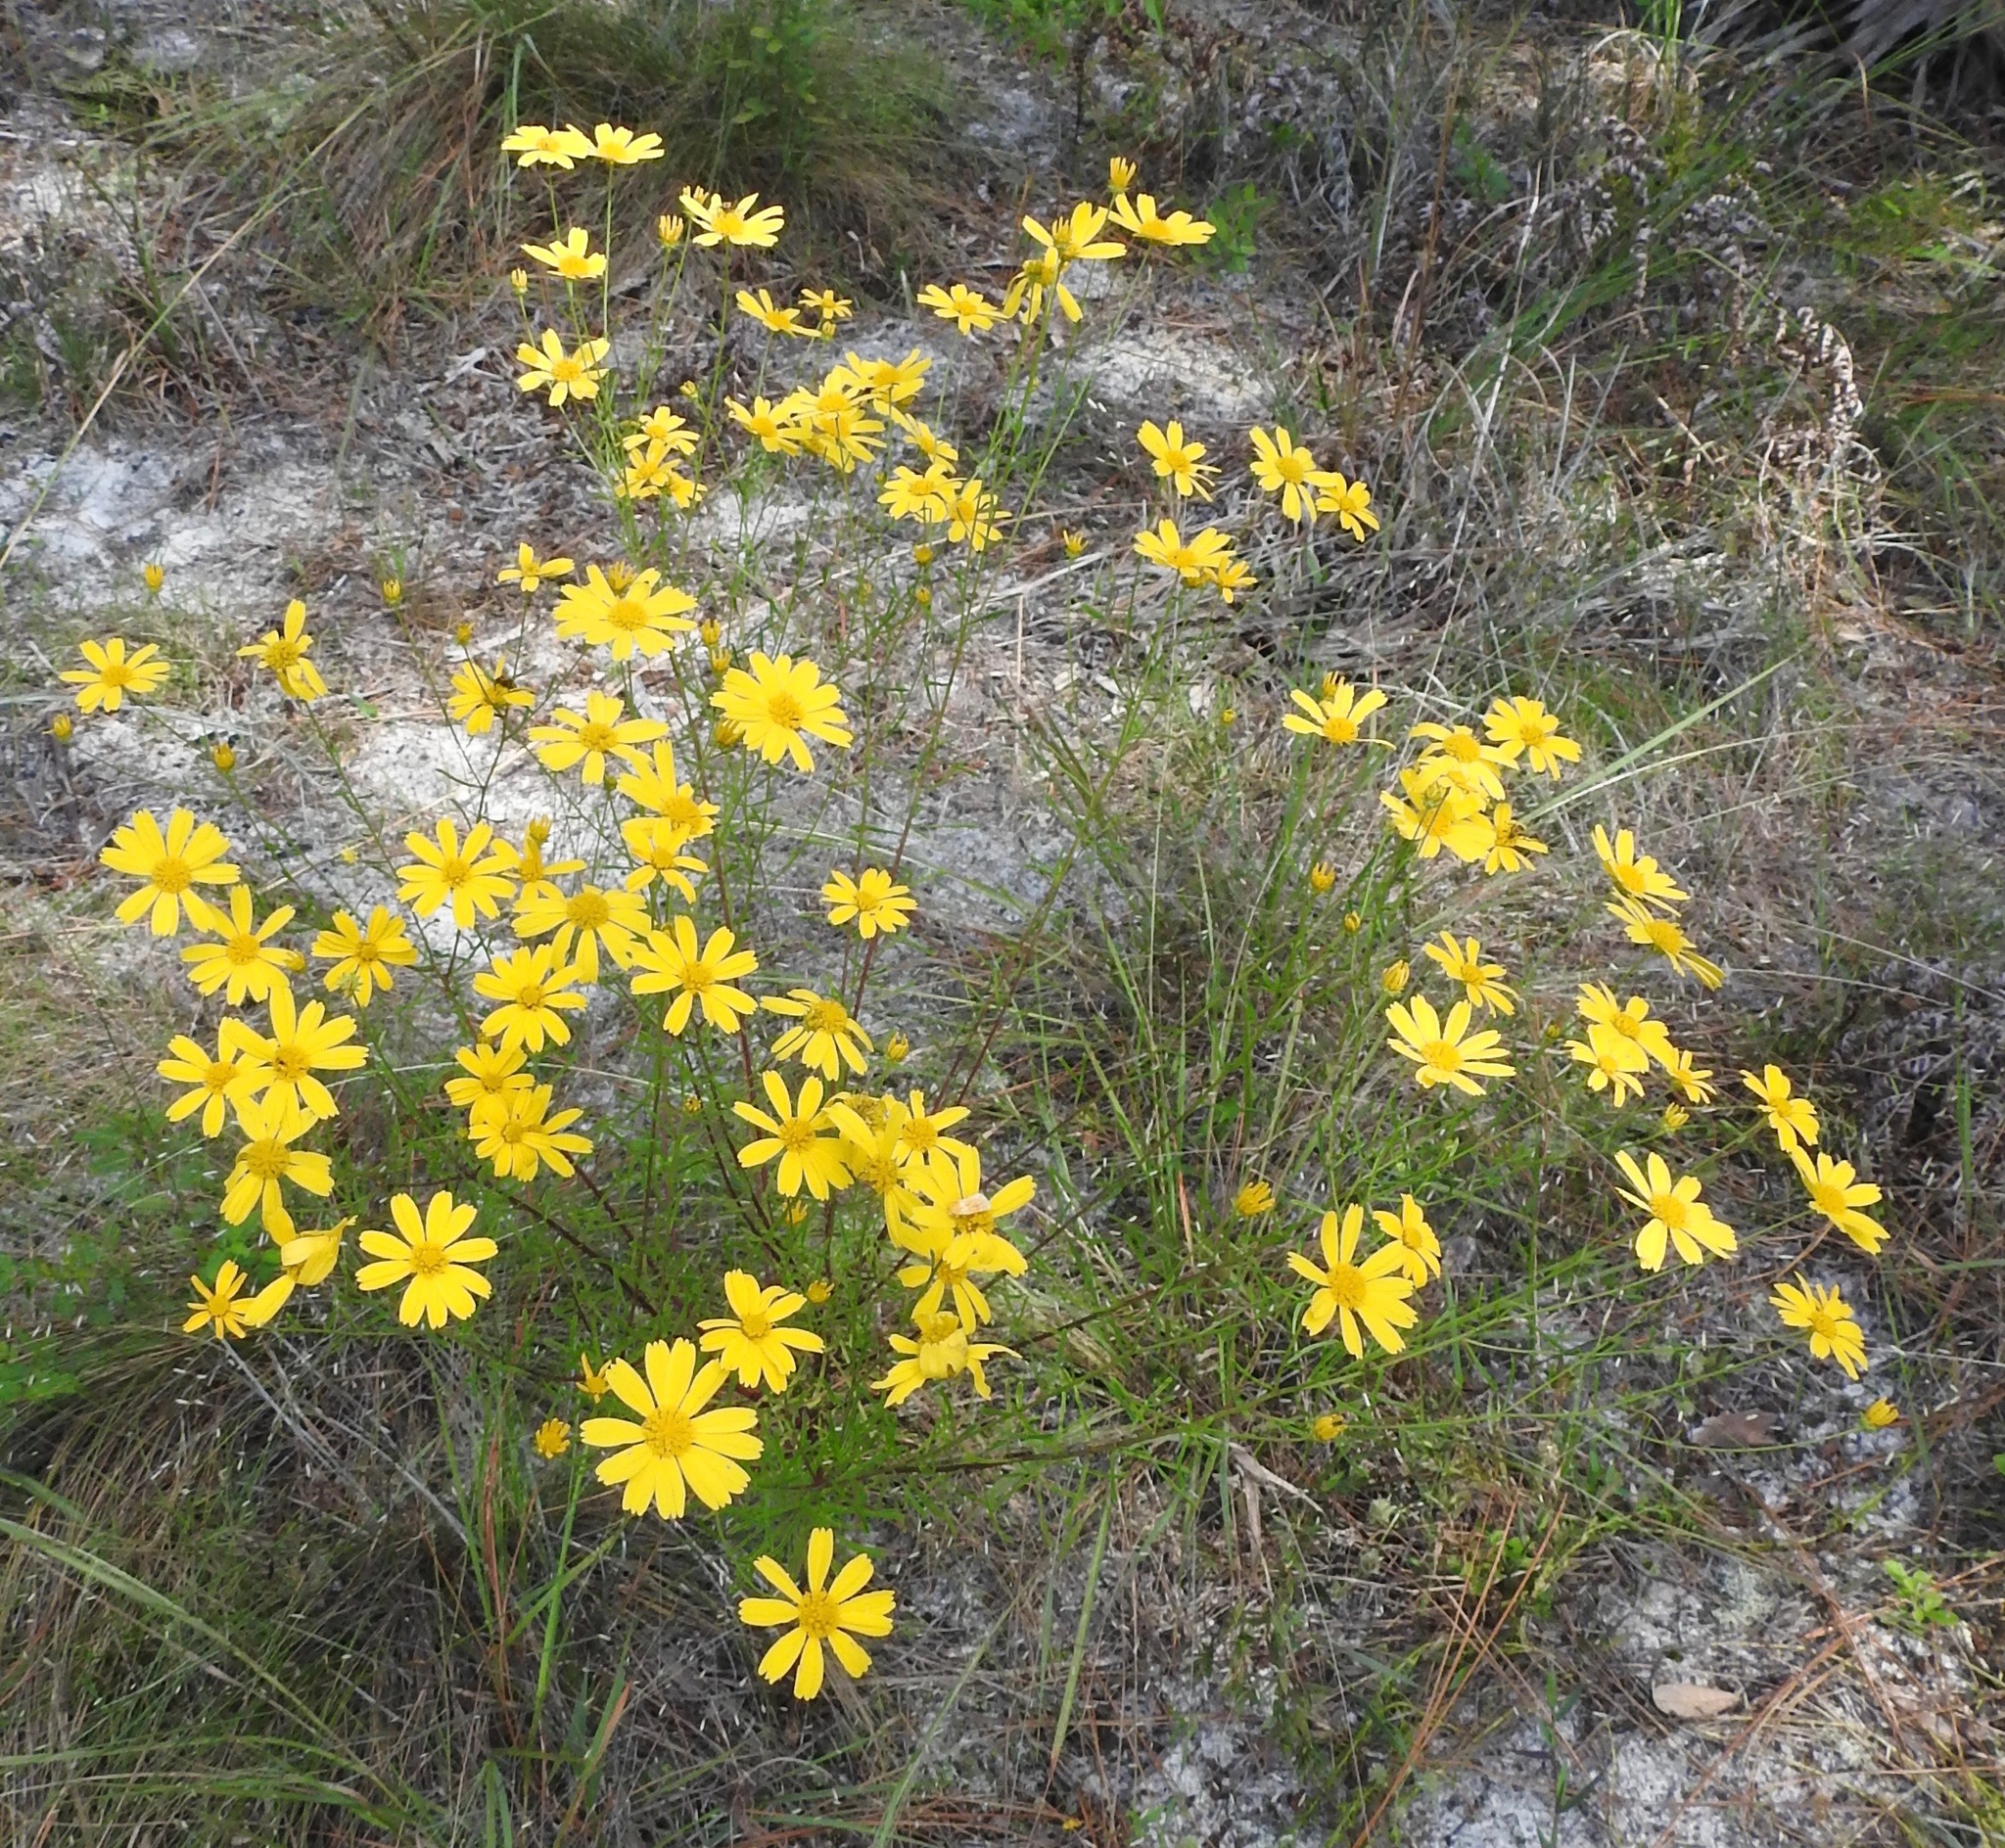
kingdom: Plantae
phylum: Tracheophyta
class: Magnoliopsida
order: Asterales
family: Asteraceae
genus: Balduina
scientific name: Balduina angustifolia
